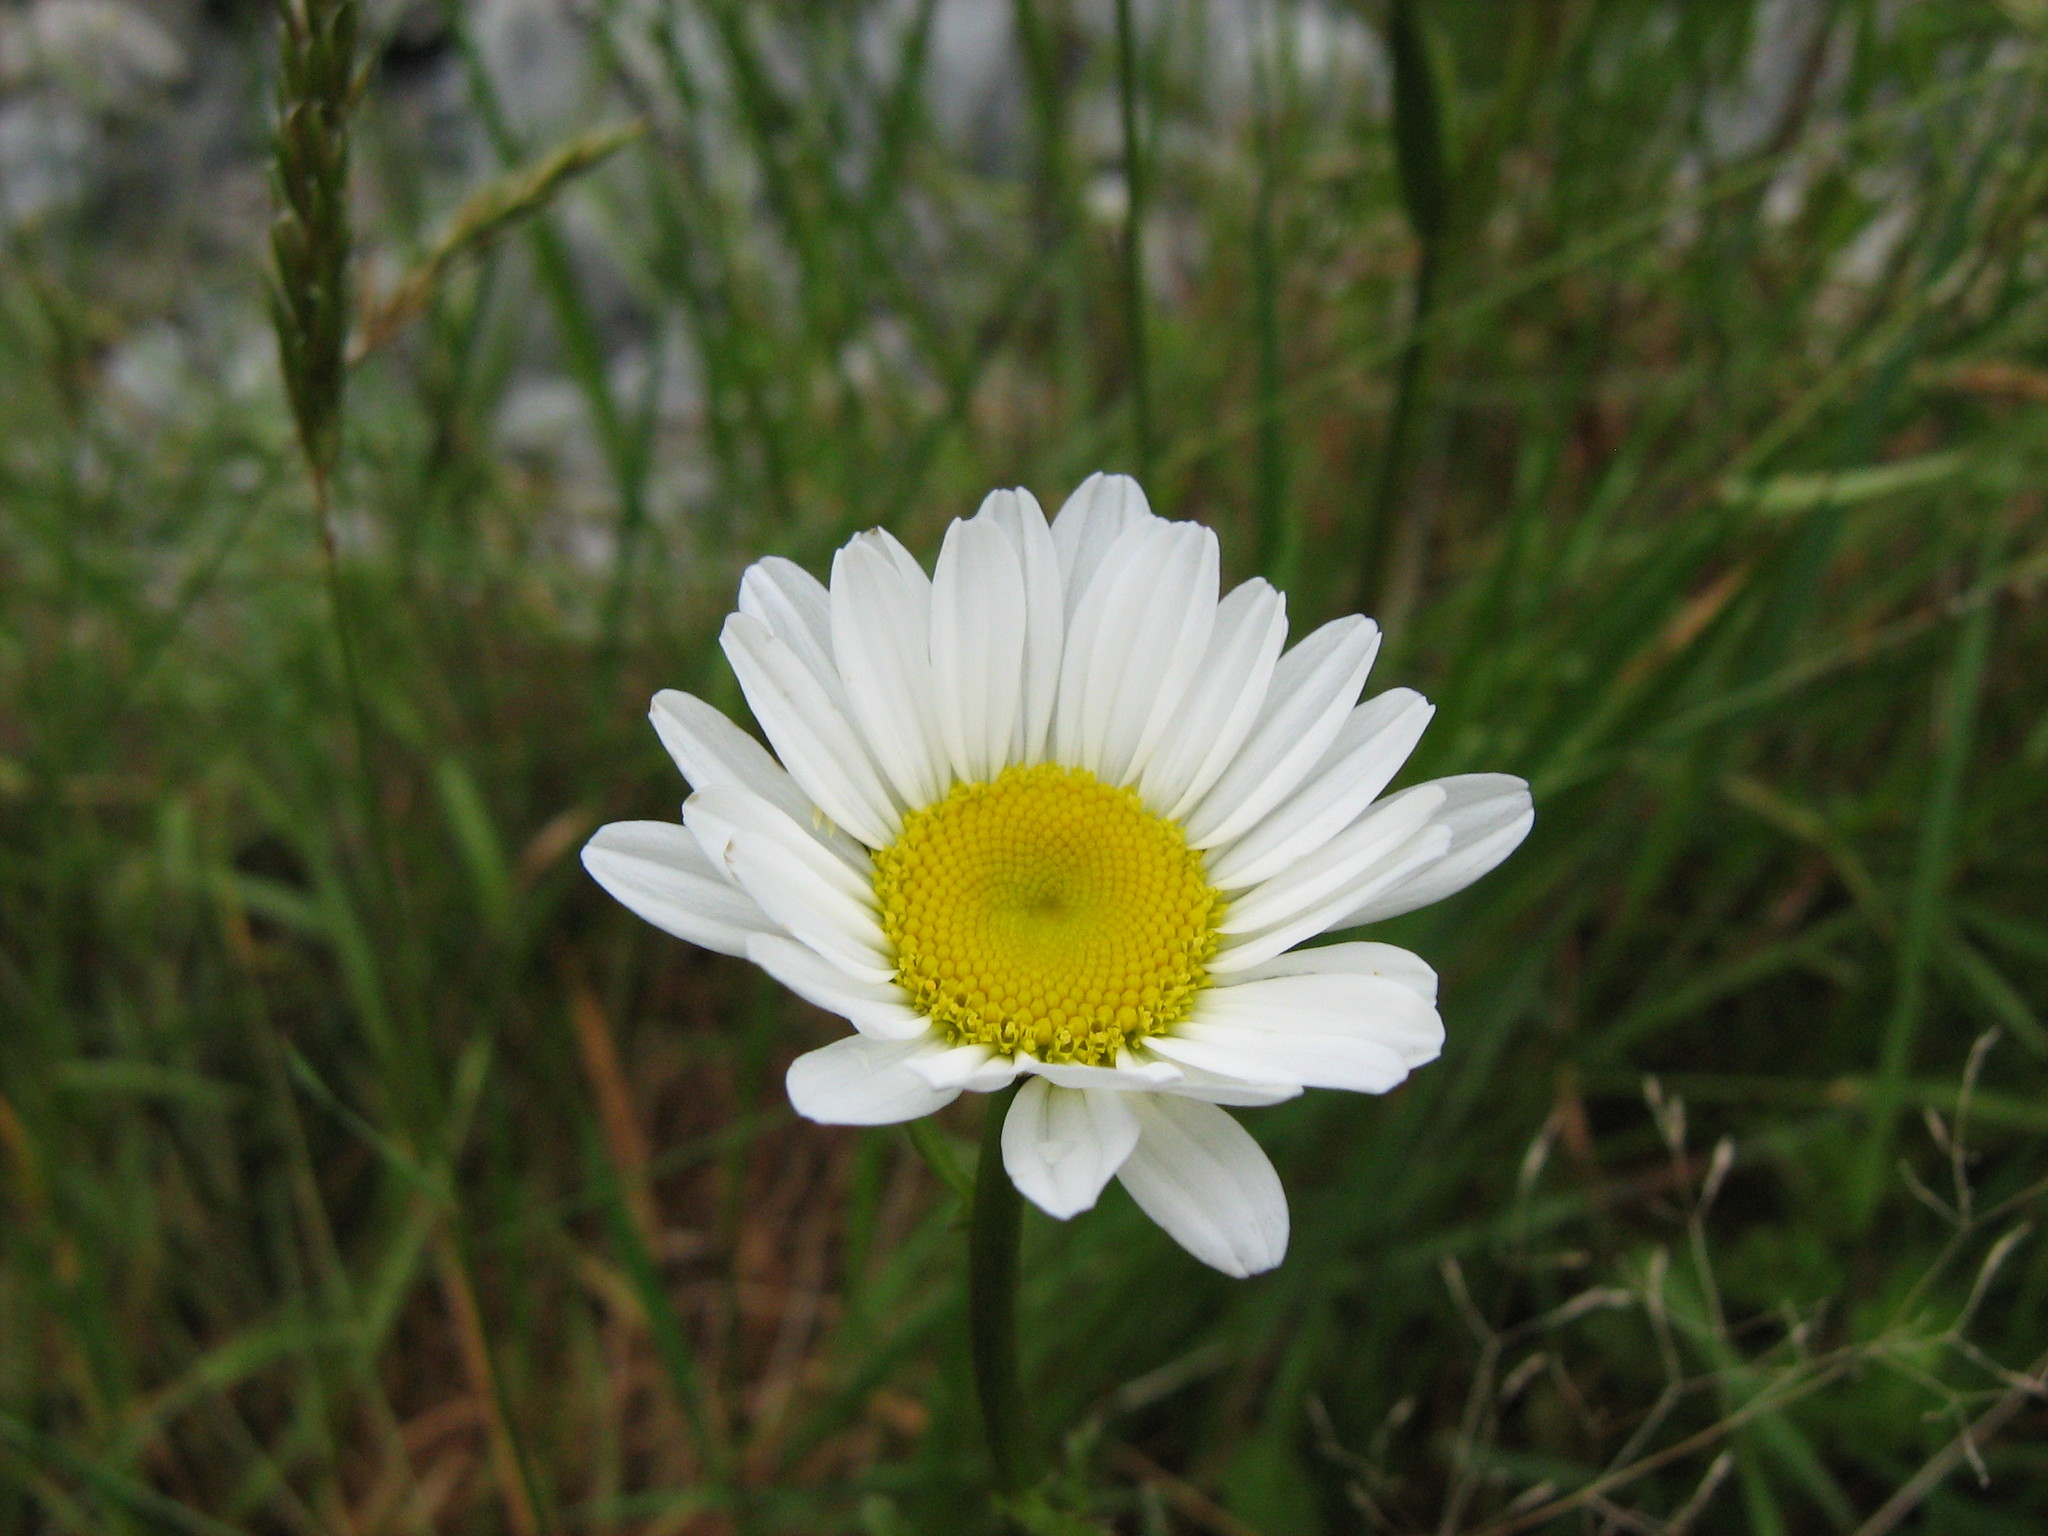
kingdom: Plantae
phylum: Tracheophyta
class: Magnoliopsida
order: Asterales
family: Asteraceae
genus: Leucanthemum
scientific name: Leucanthemum vulgare
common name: Oxeye daisy
